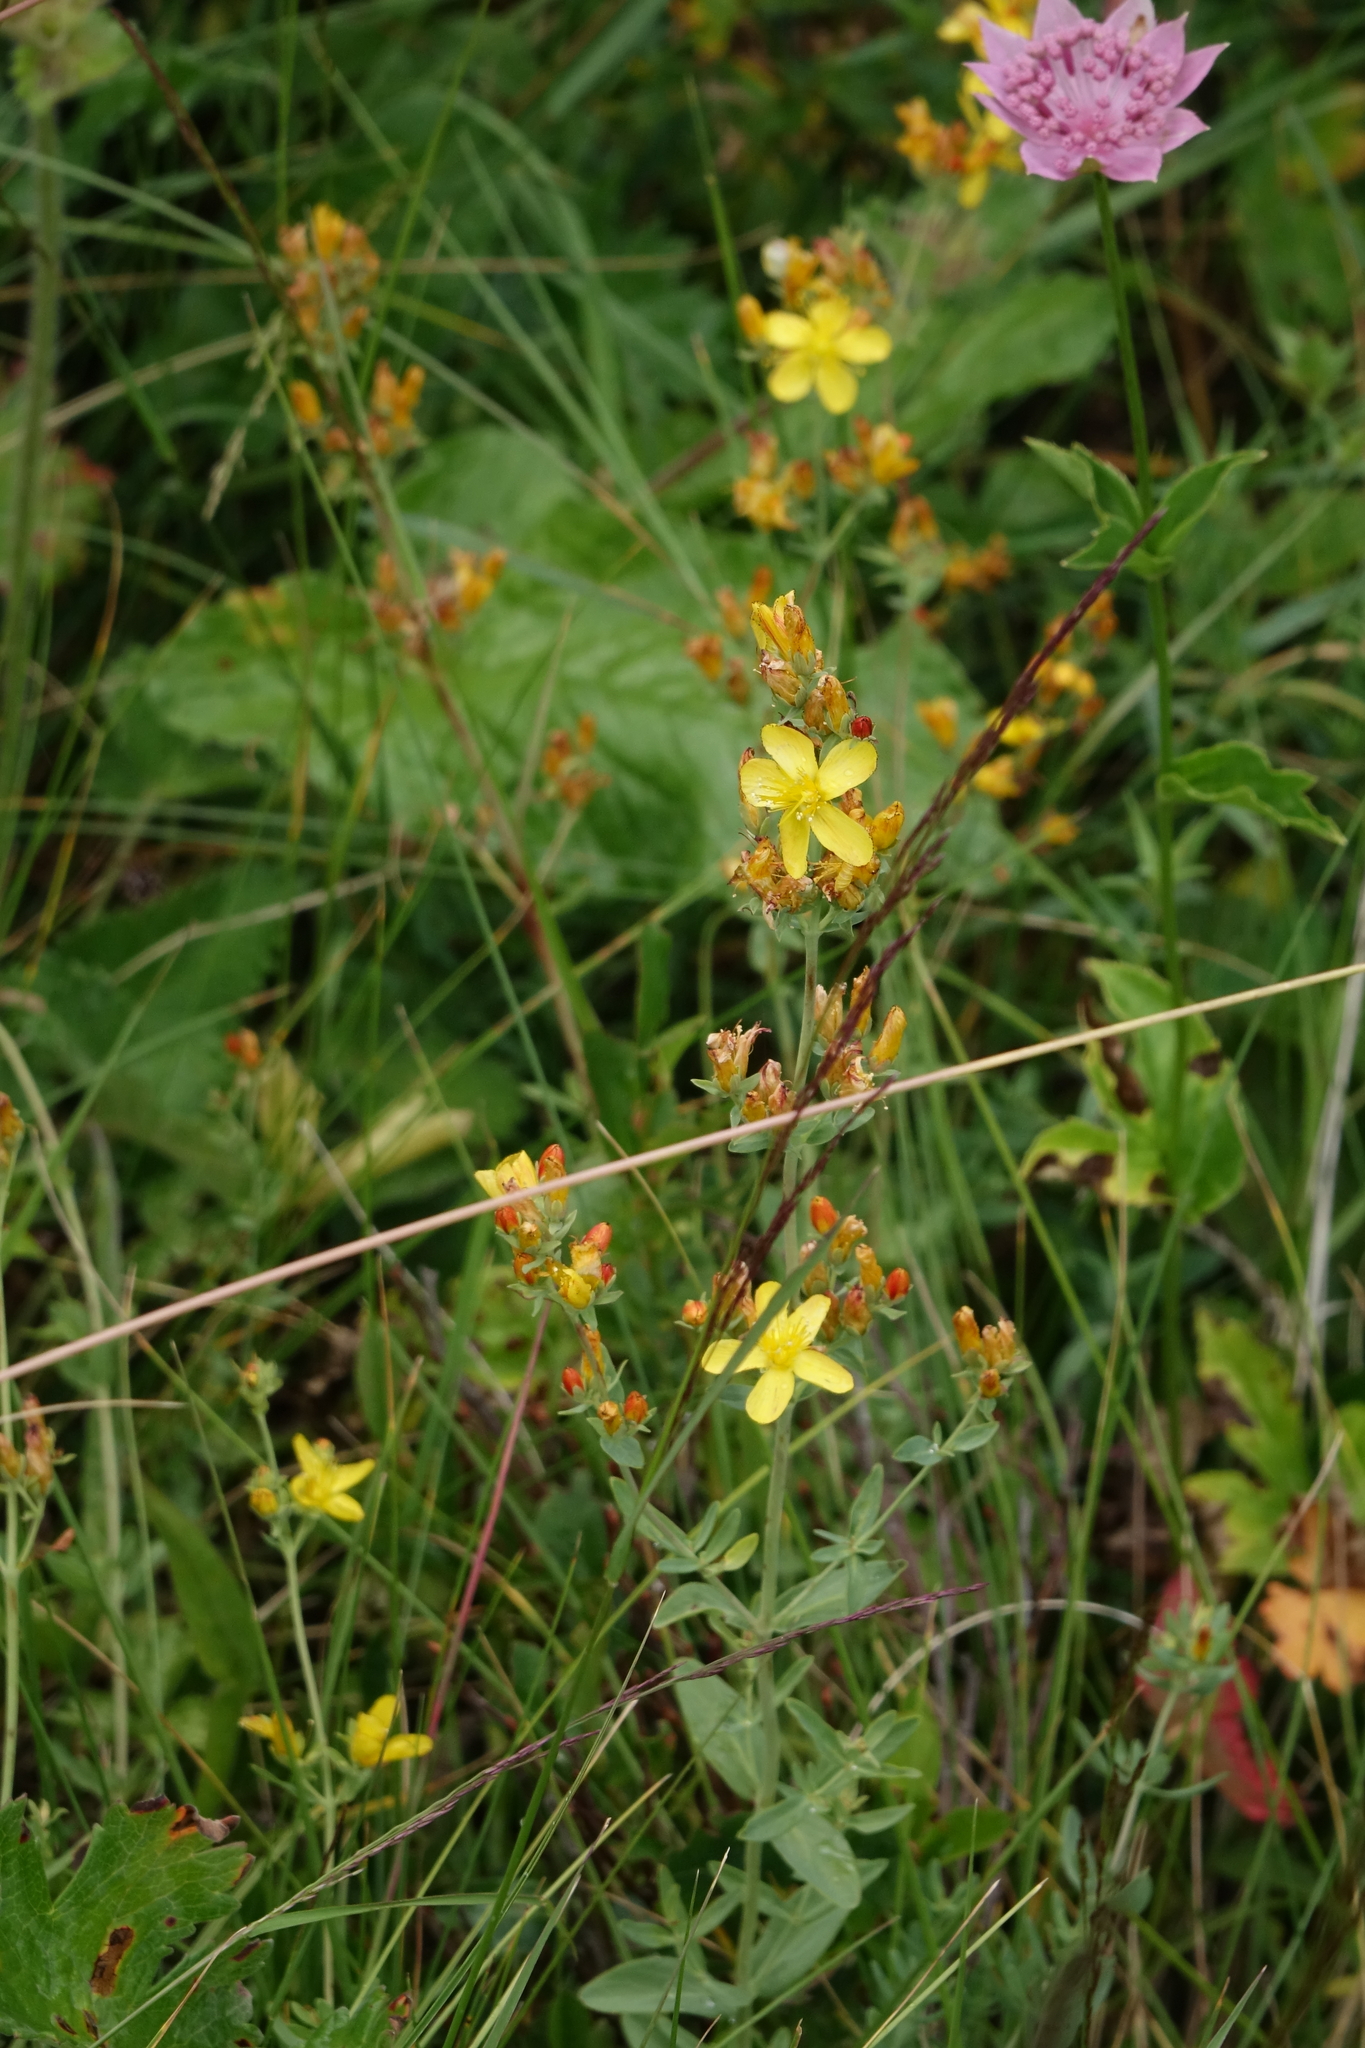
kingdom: Plantae
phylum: Tracheophyta
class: Magnoliopsida
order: Malpighiales
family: Hypericaceae
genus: Hypericum
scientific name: Hypericum linarioides
